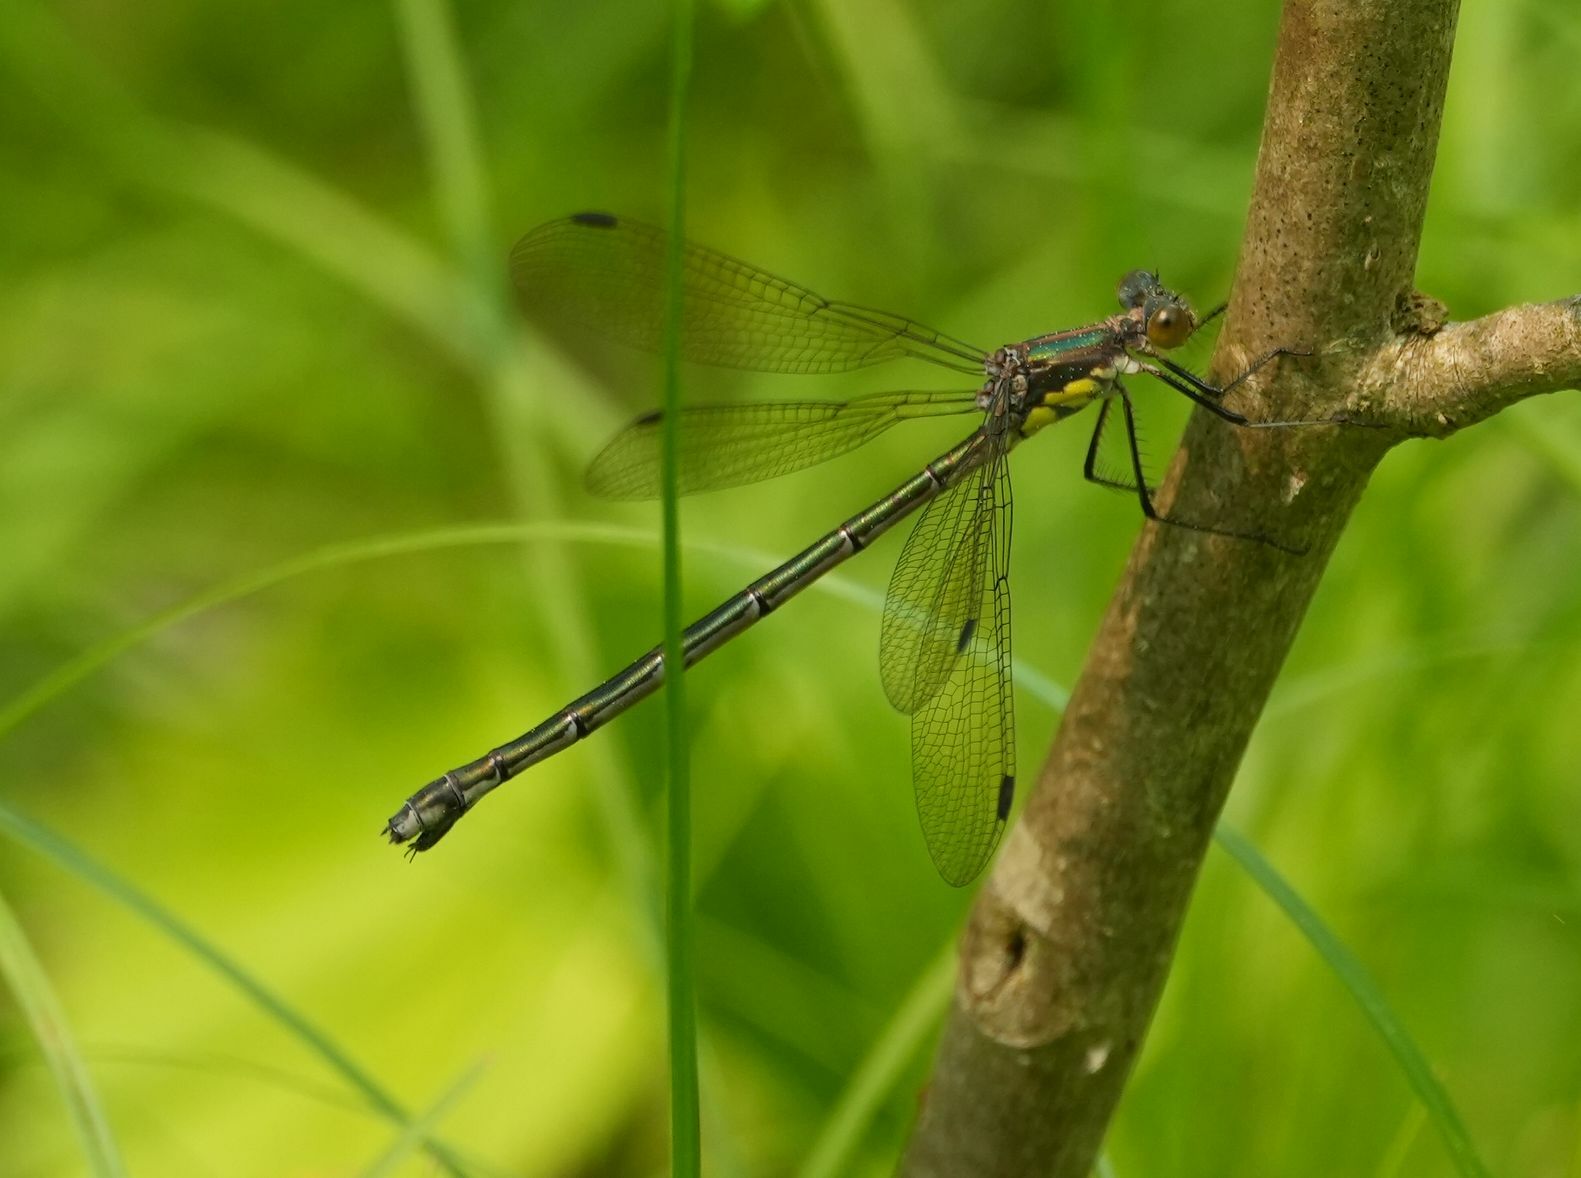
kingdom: Animalia
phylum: Arthropoda
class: Insecta
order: Odonata
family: Lestidae
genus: Lestes
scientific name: Lestes eurinus
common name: Amber-winged spreadwing
